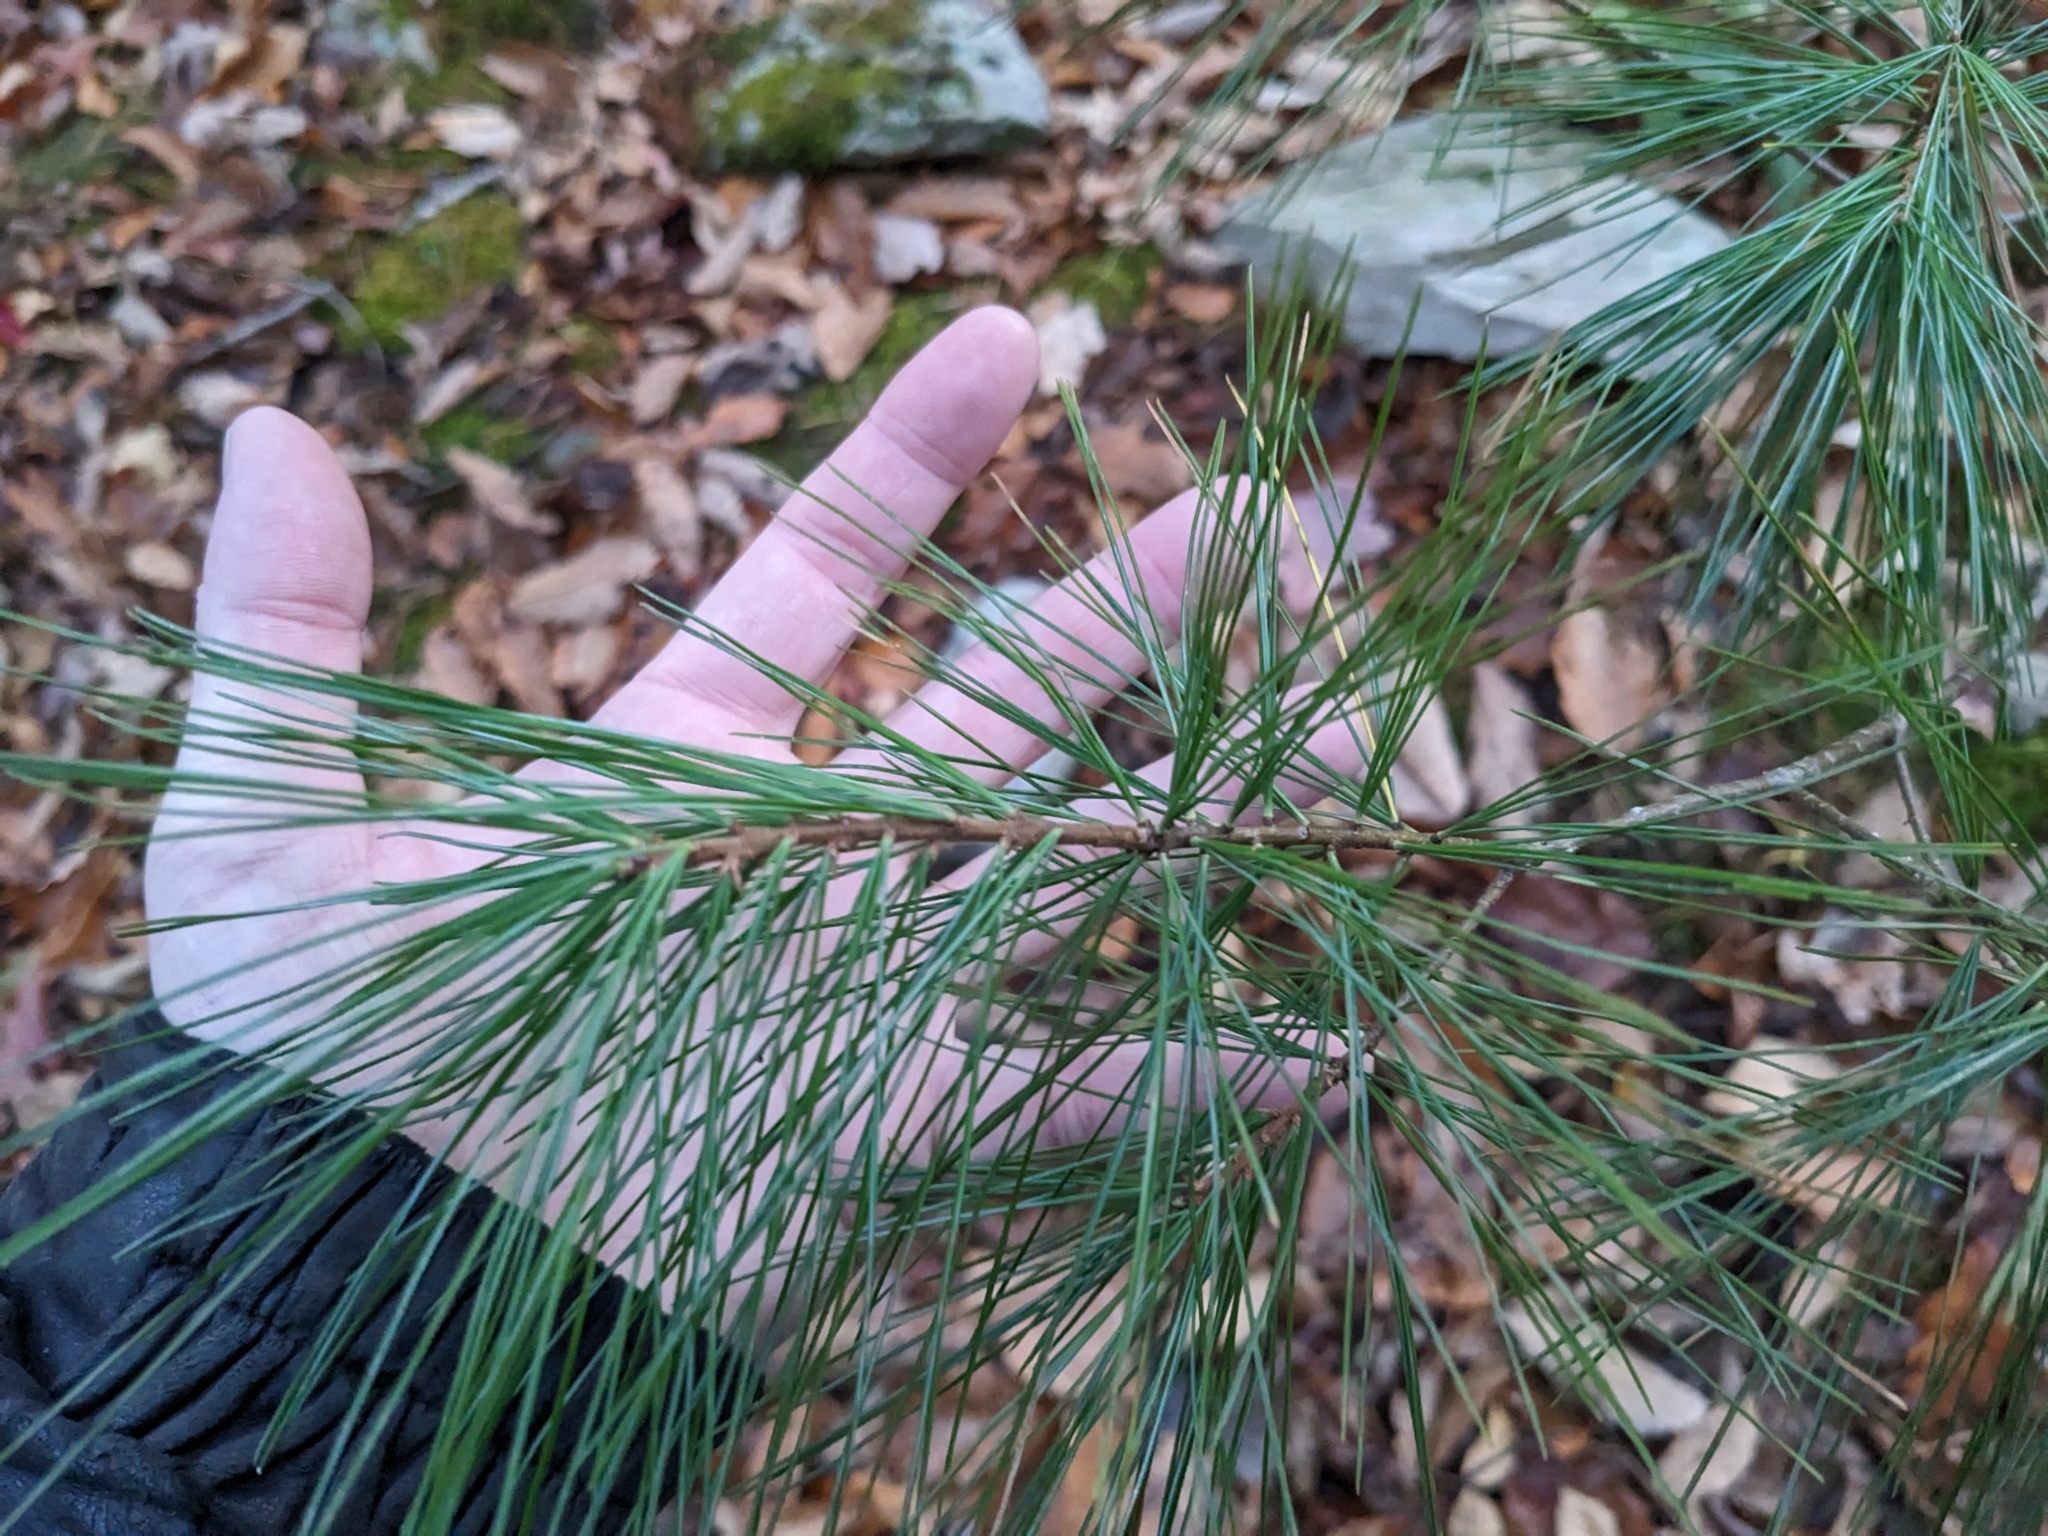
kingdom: Plantae
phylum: Tracheophyta
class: Pinopsida
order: Pinales
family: Pinaceae
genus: Pinus
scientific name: Pinus strobus
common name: Weymouth pine
